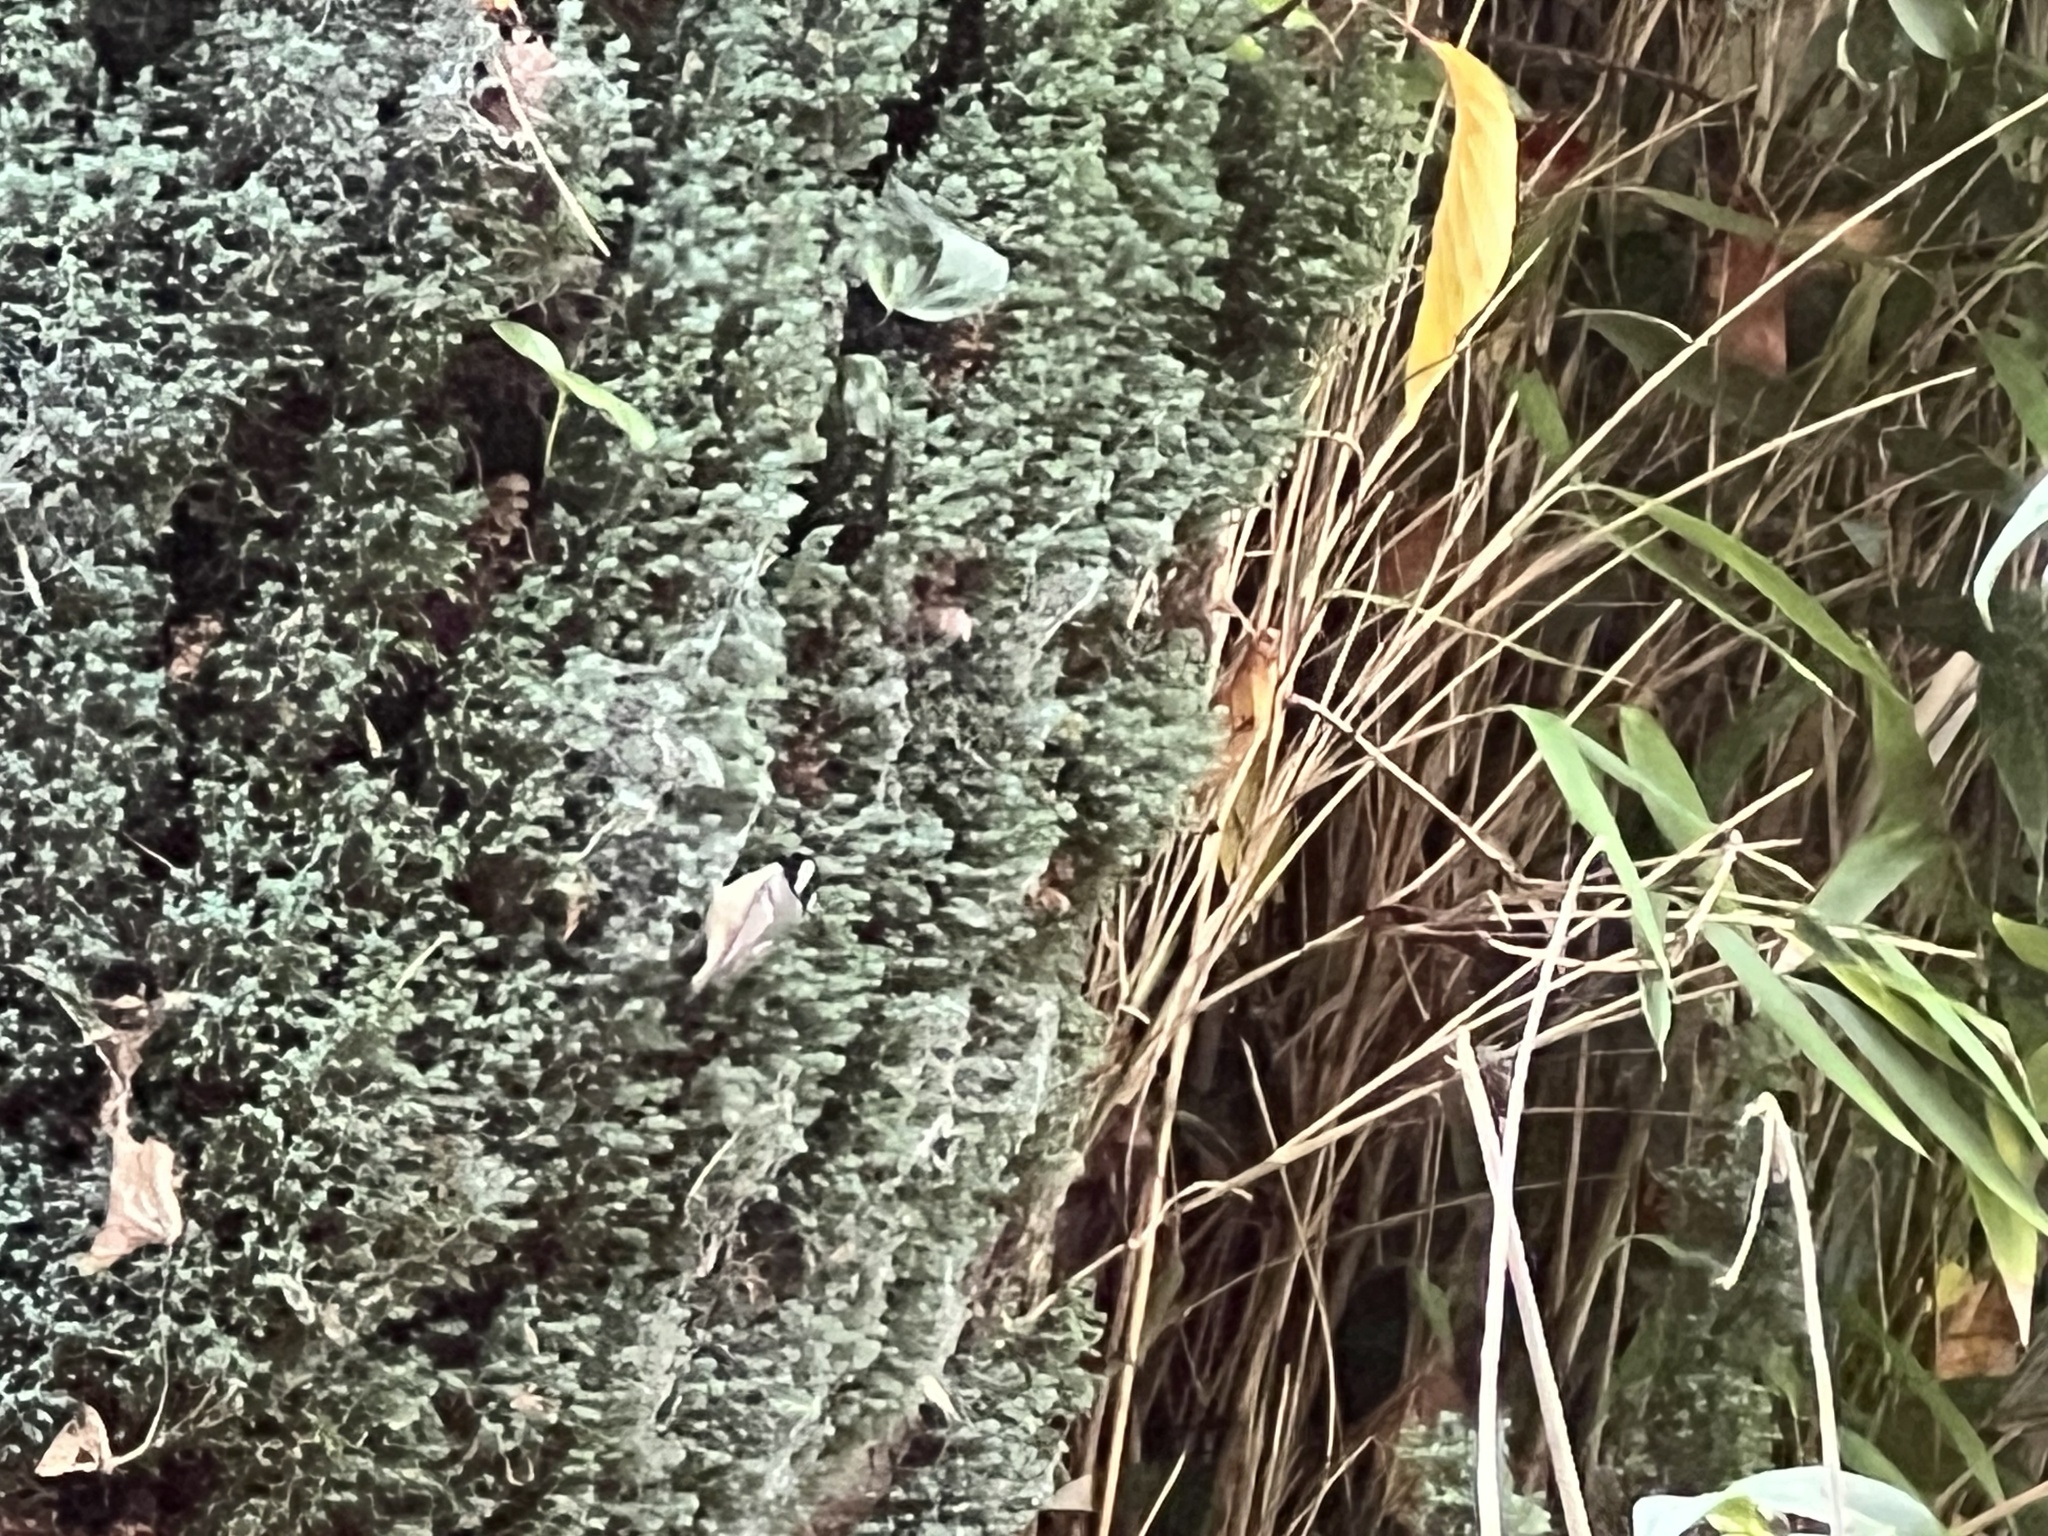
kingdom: Animalia
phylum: Chordata
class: Aves
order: Passeriformes
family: Paridae
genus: Periparus
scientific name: Periparus ater
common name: Coal tit
